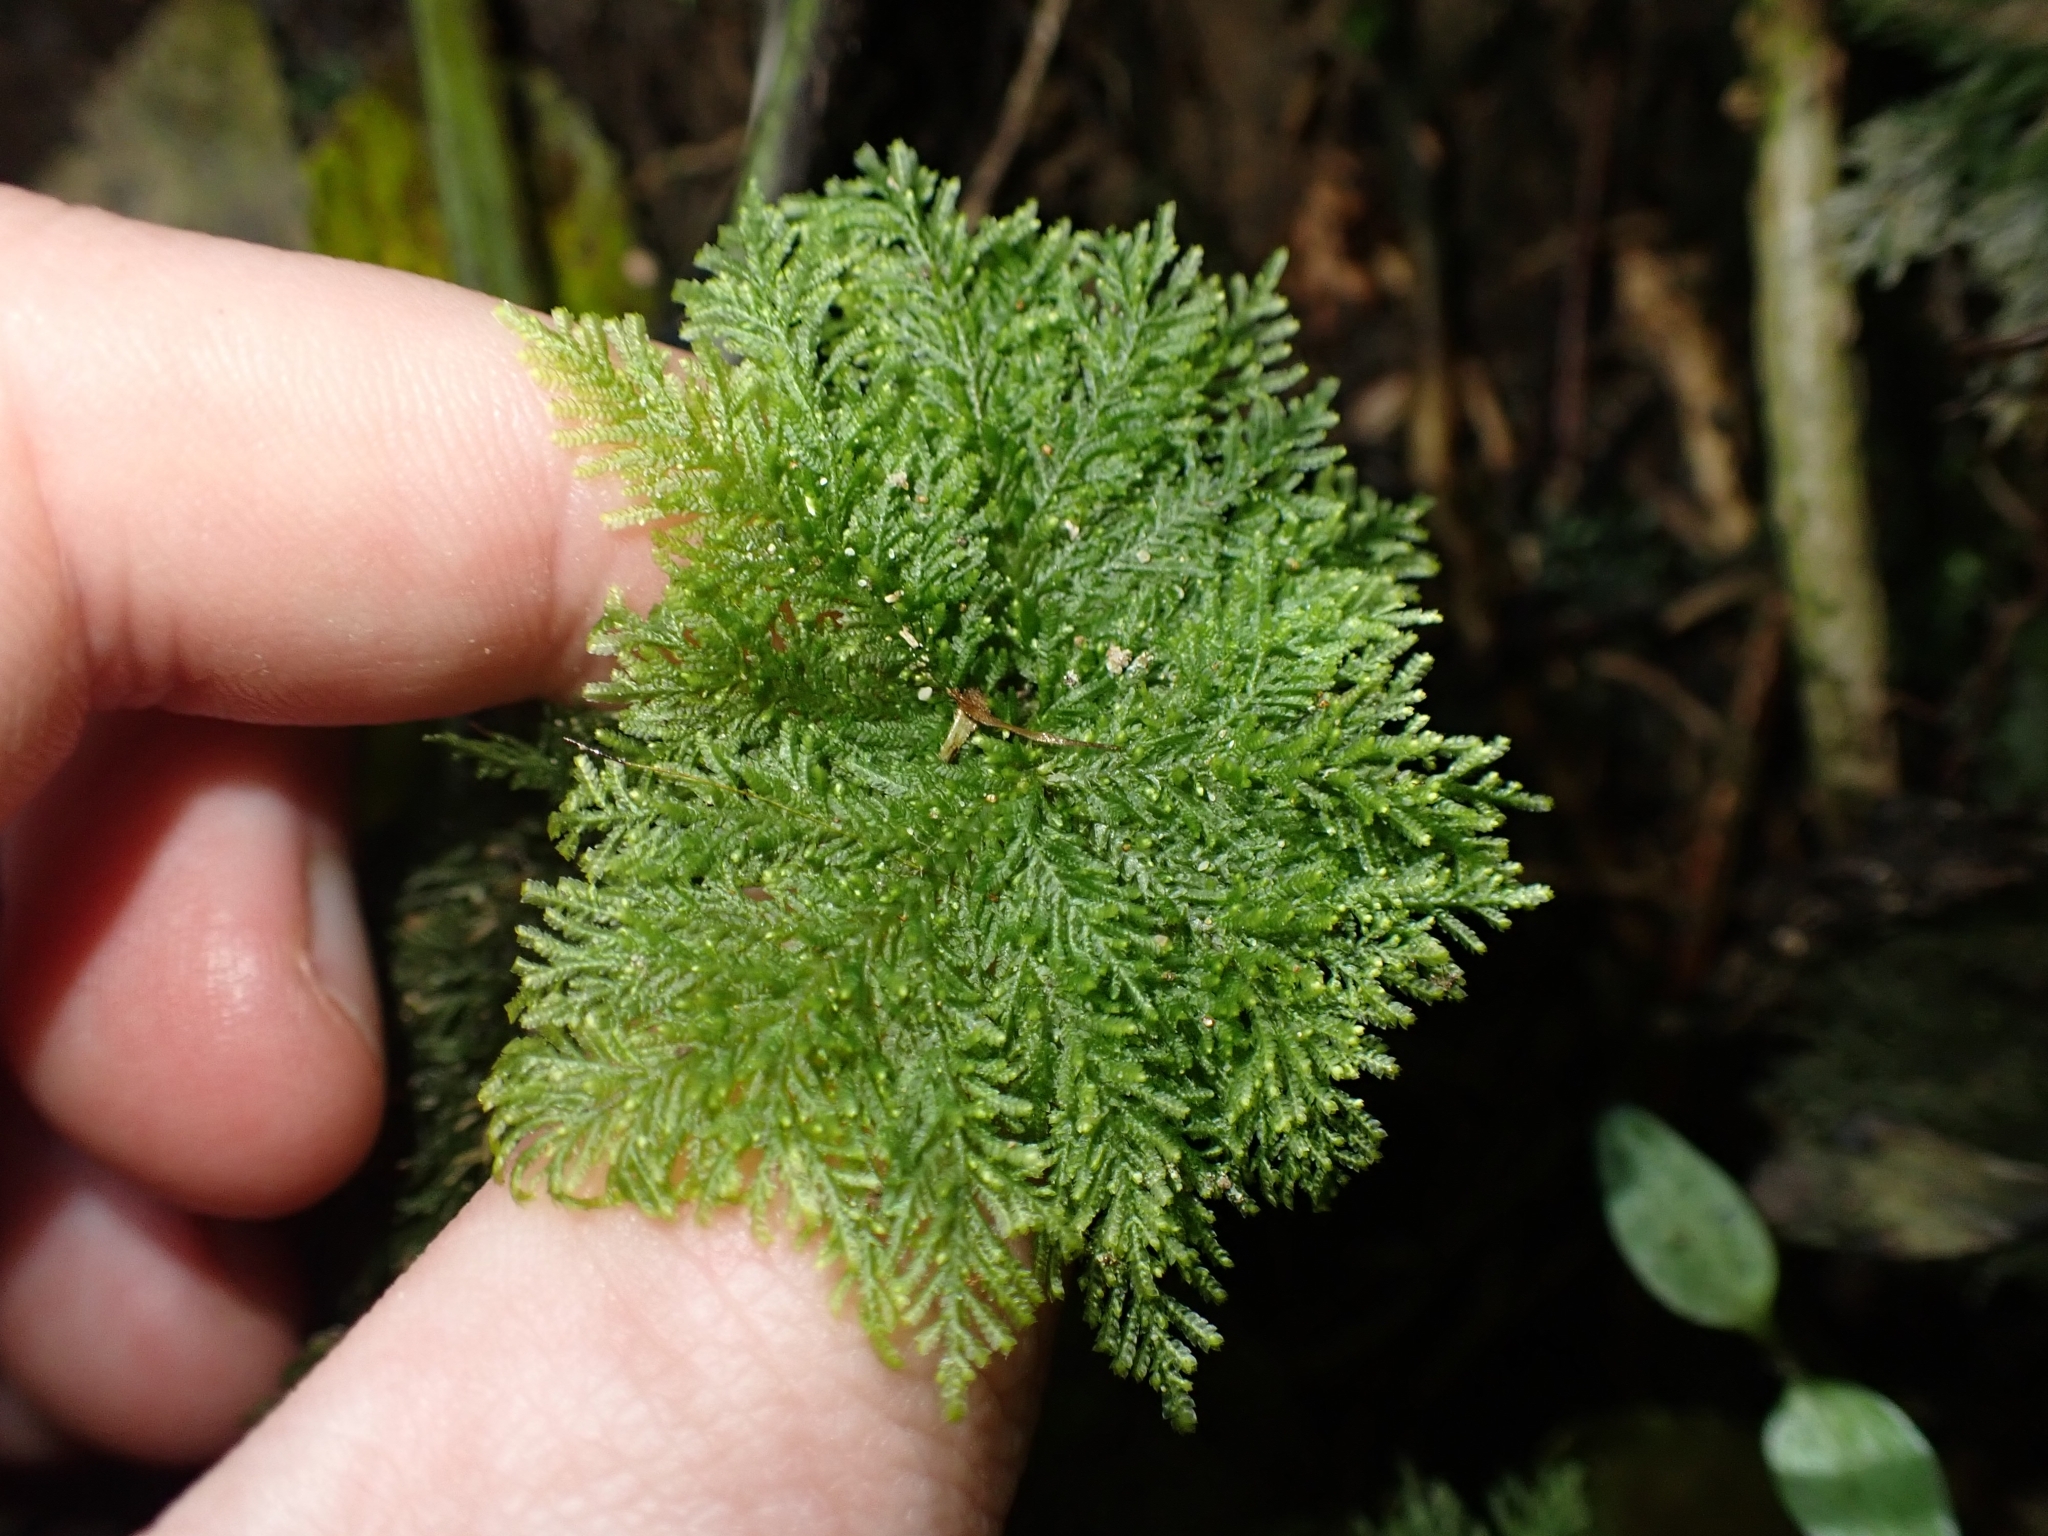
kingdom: Plantae
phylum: Bryophyta
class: Bryopsida
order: Hypopterygiales
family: Hypopterygiaceae
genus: Dendrohypopterygium
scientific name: Dendrohypopterygium filiculiforme
